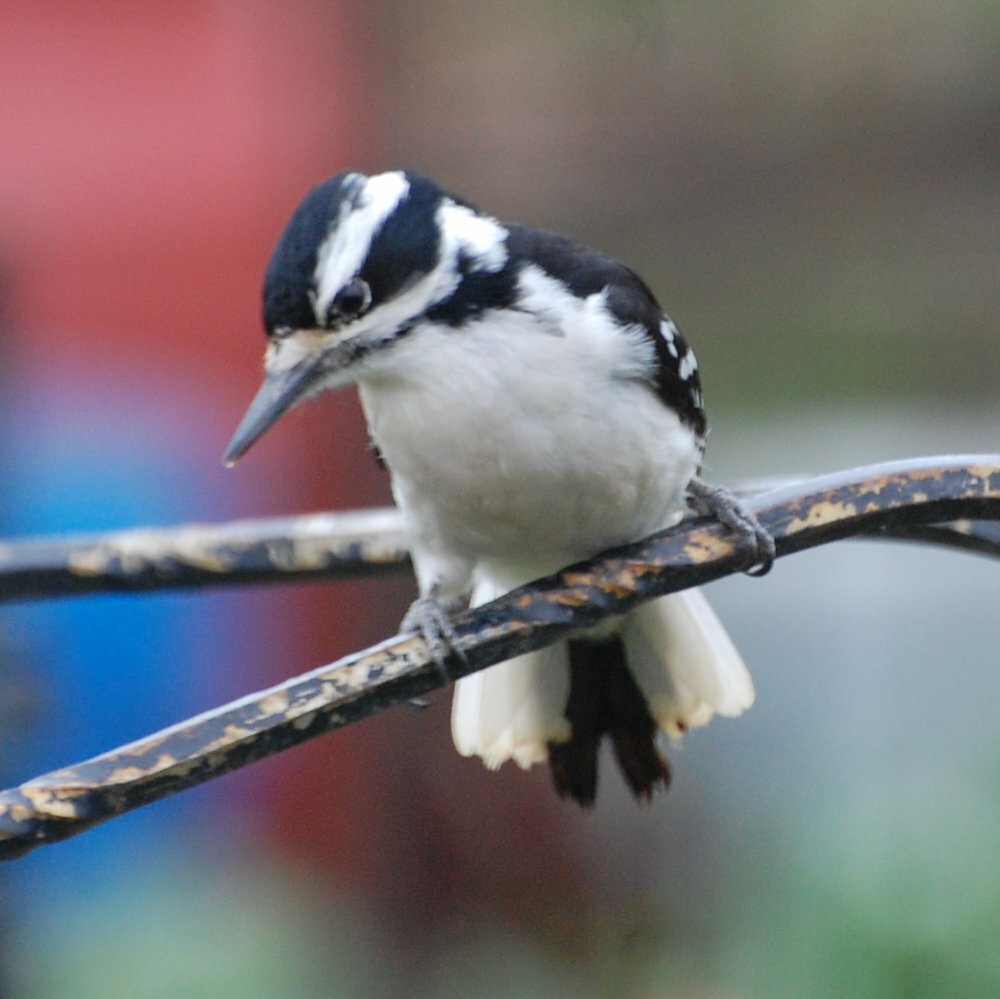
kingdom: Animalia
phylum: Chordata
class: Aves
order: Piciformes
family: Picidae
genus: Leuconotopicus
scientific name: Leuconotopicus villosus
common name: Hairy woodpecker
